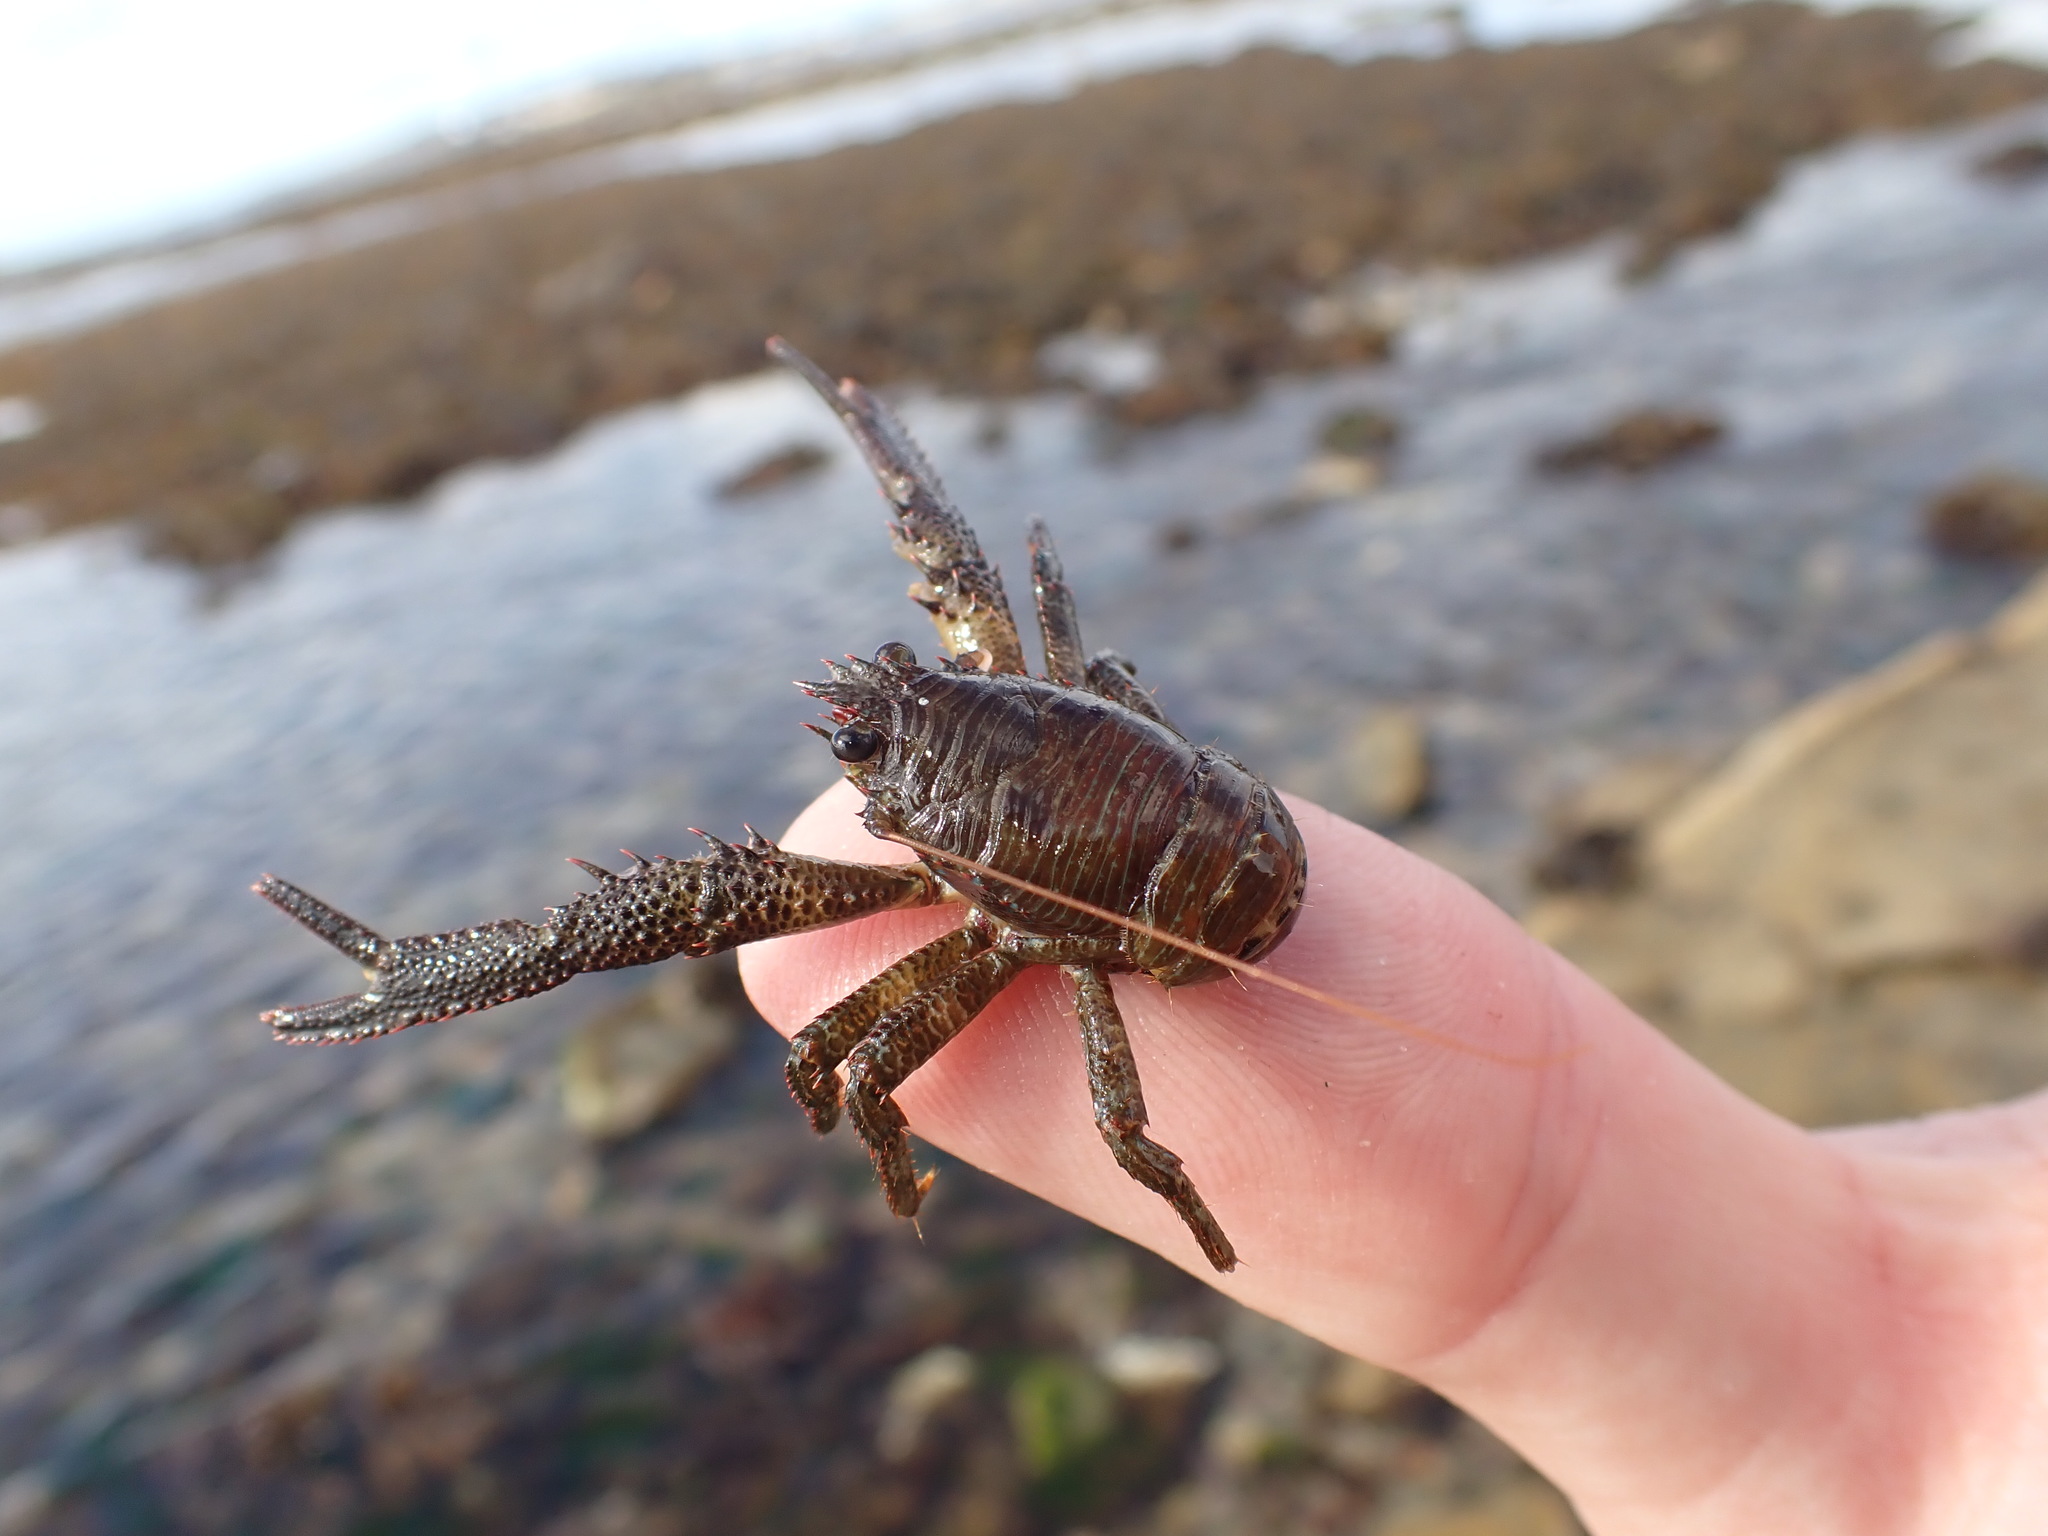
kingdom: Animalia
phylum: Arthropoda
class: Malacostraca
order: Decapoda
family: Galatheidae
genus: Galathea
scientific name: Galathea squamifera
